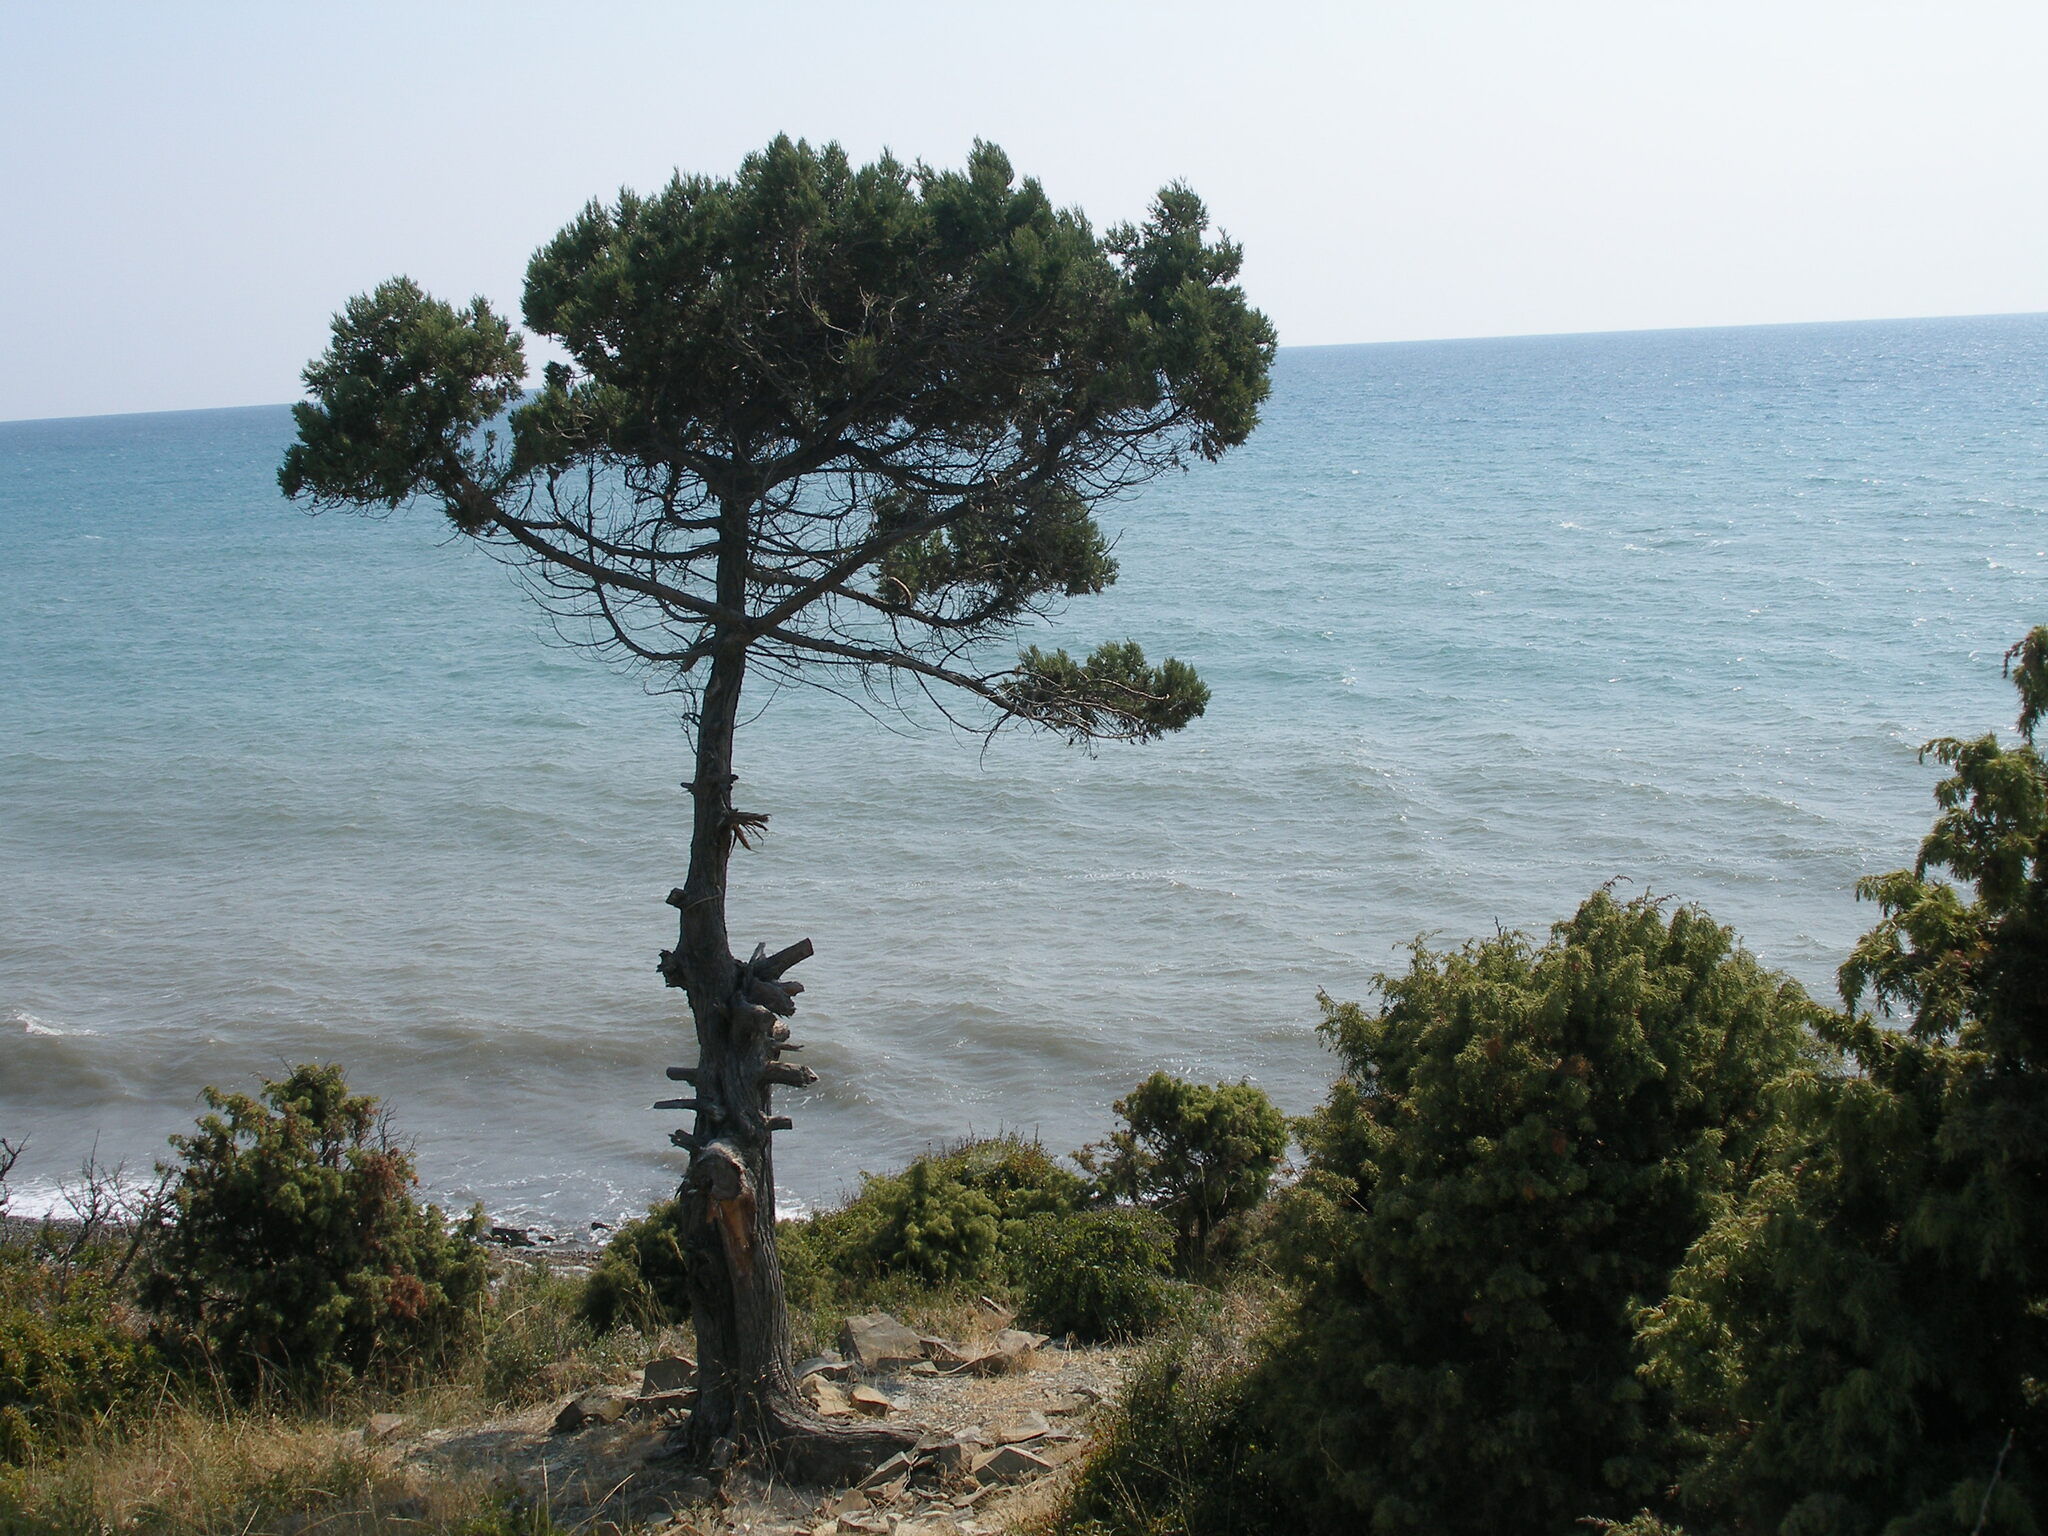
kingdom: Plantae
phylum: Tracheophyta
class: Pinopsida
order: Pinales
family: Cupressaceae
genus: Juniperus
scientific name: Juniperus excelsa
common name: Crimean juniper
